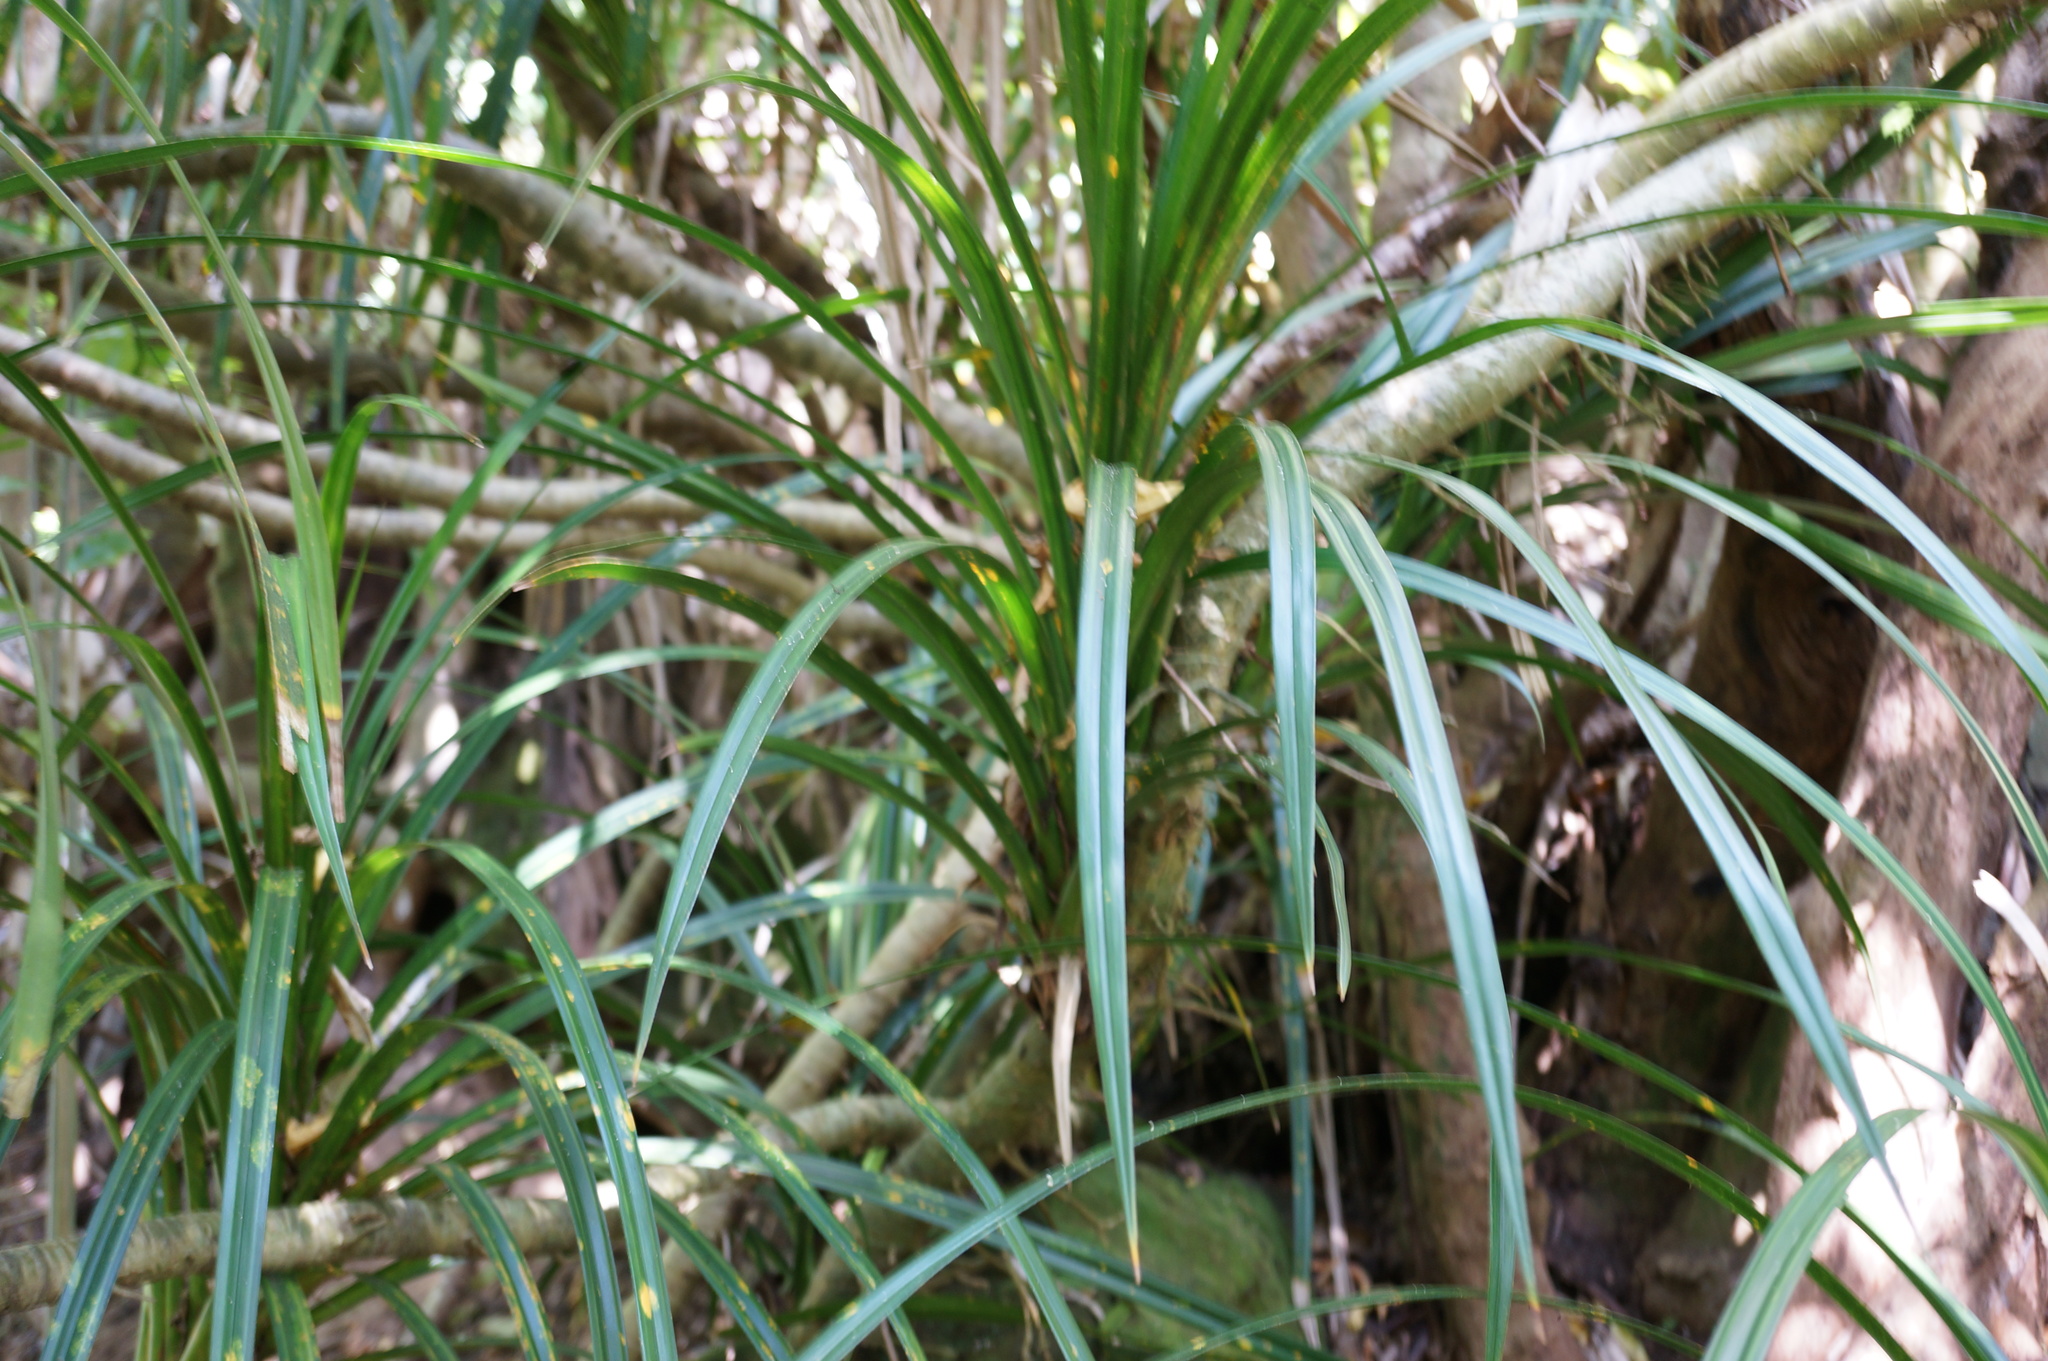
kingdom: Plantae
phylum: Tracheophyta
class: Liliopsida
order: Pandanales
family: Pandanaceae
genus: Freycinetia
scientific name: Freycinetia banksii
